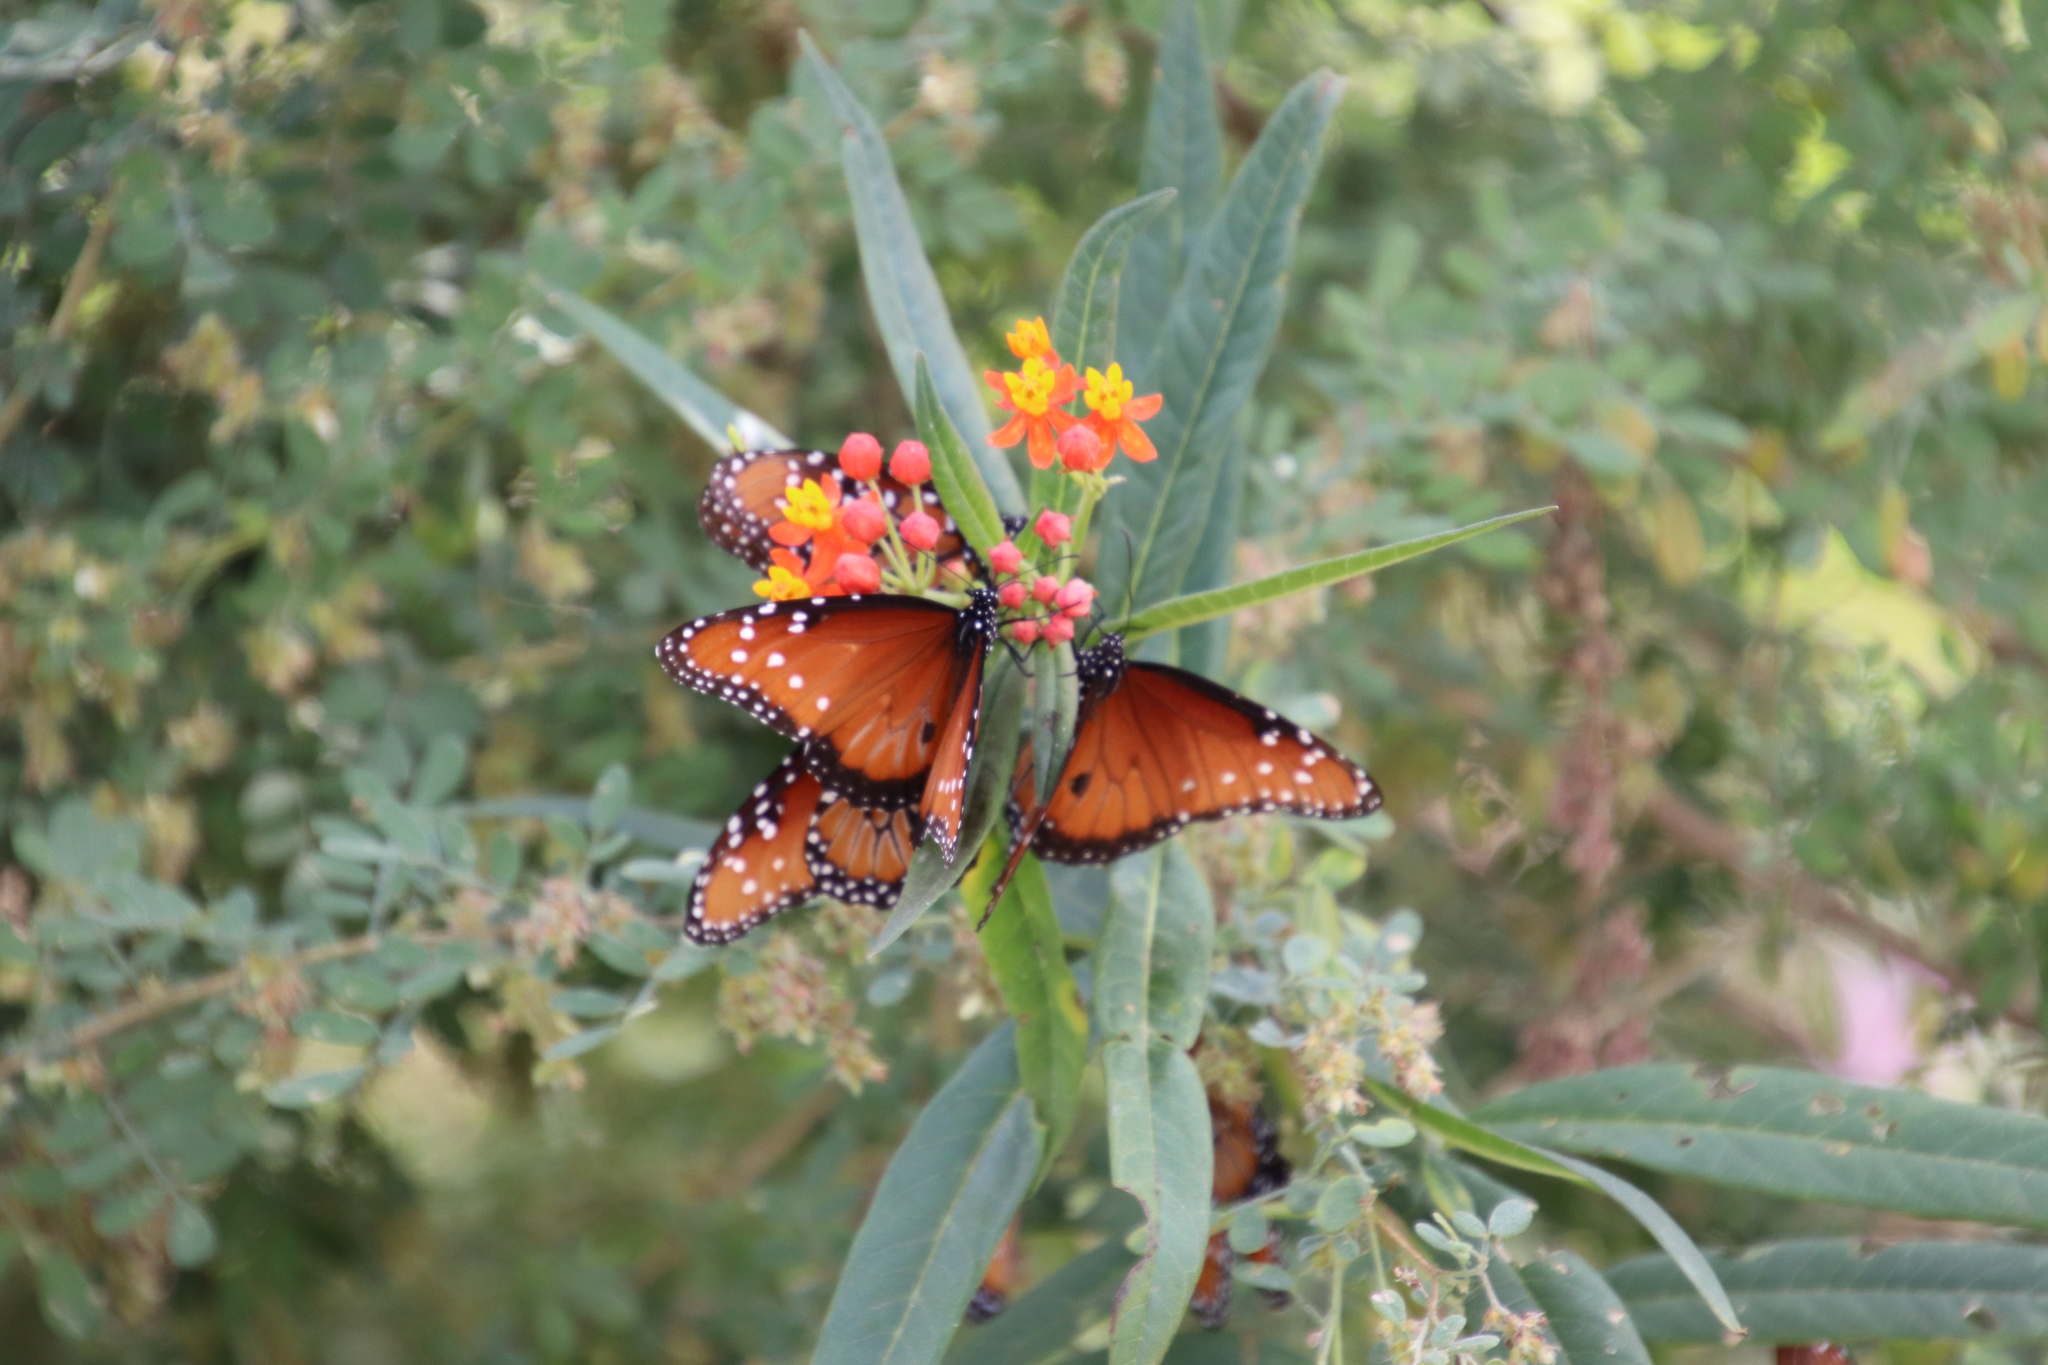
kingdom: Animalia
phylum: Arthropoda
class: Insecta
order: Lepidoptera
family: Nymphalidae
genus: Danaus
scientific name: Danaus gilippus
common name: Queen
